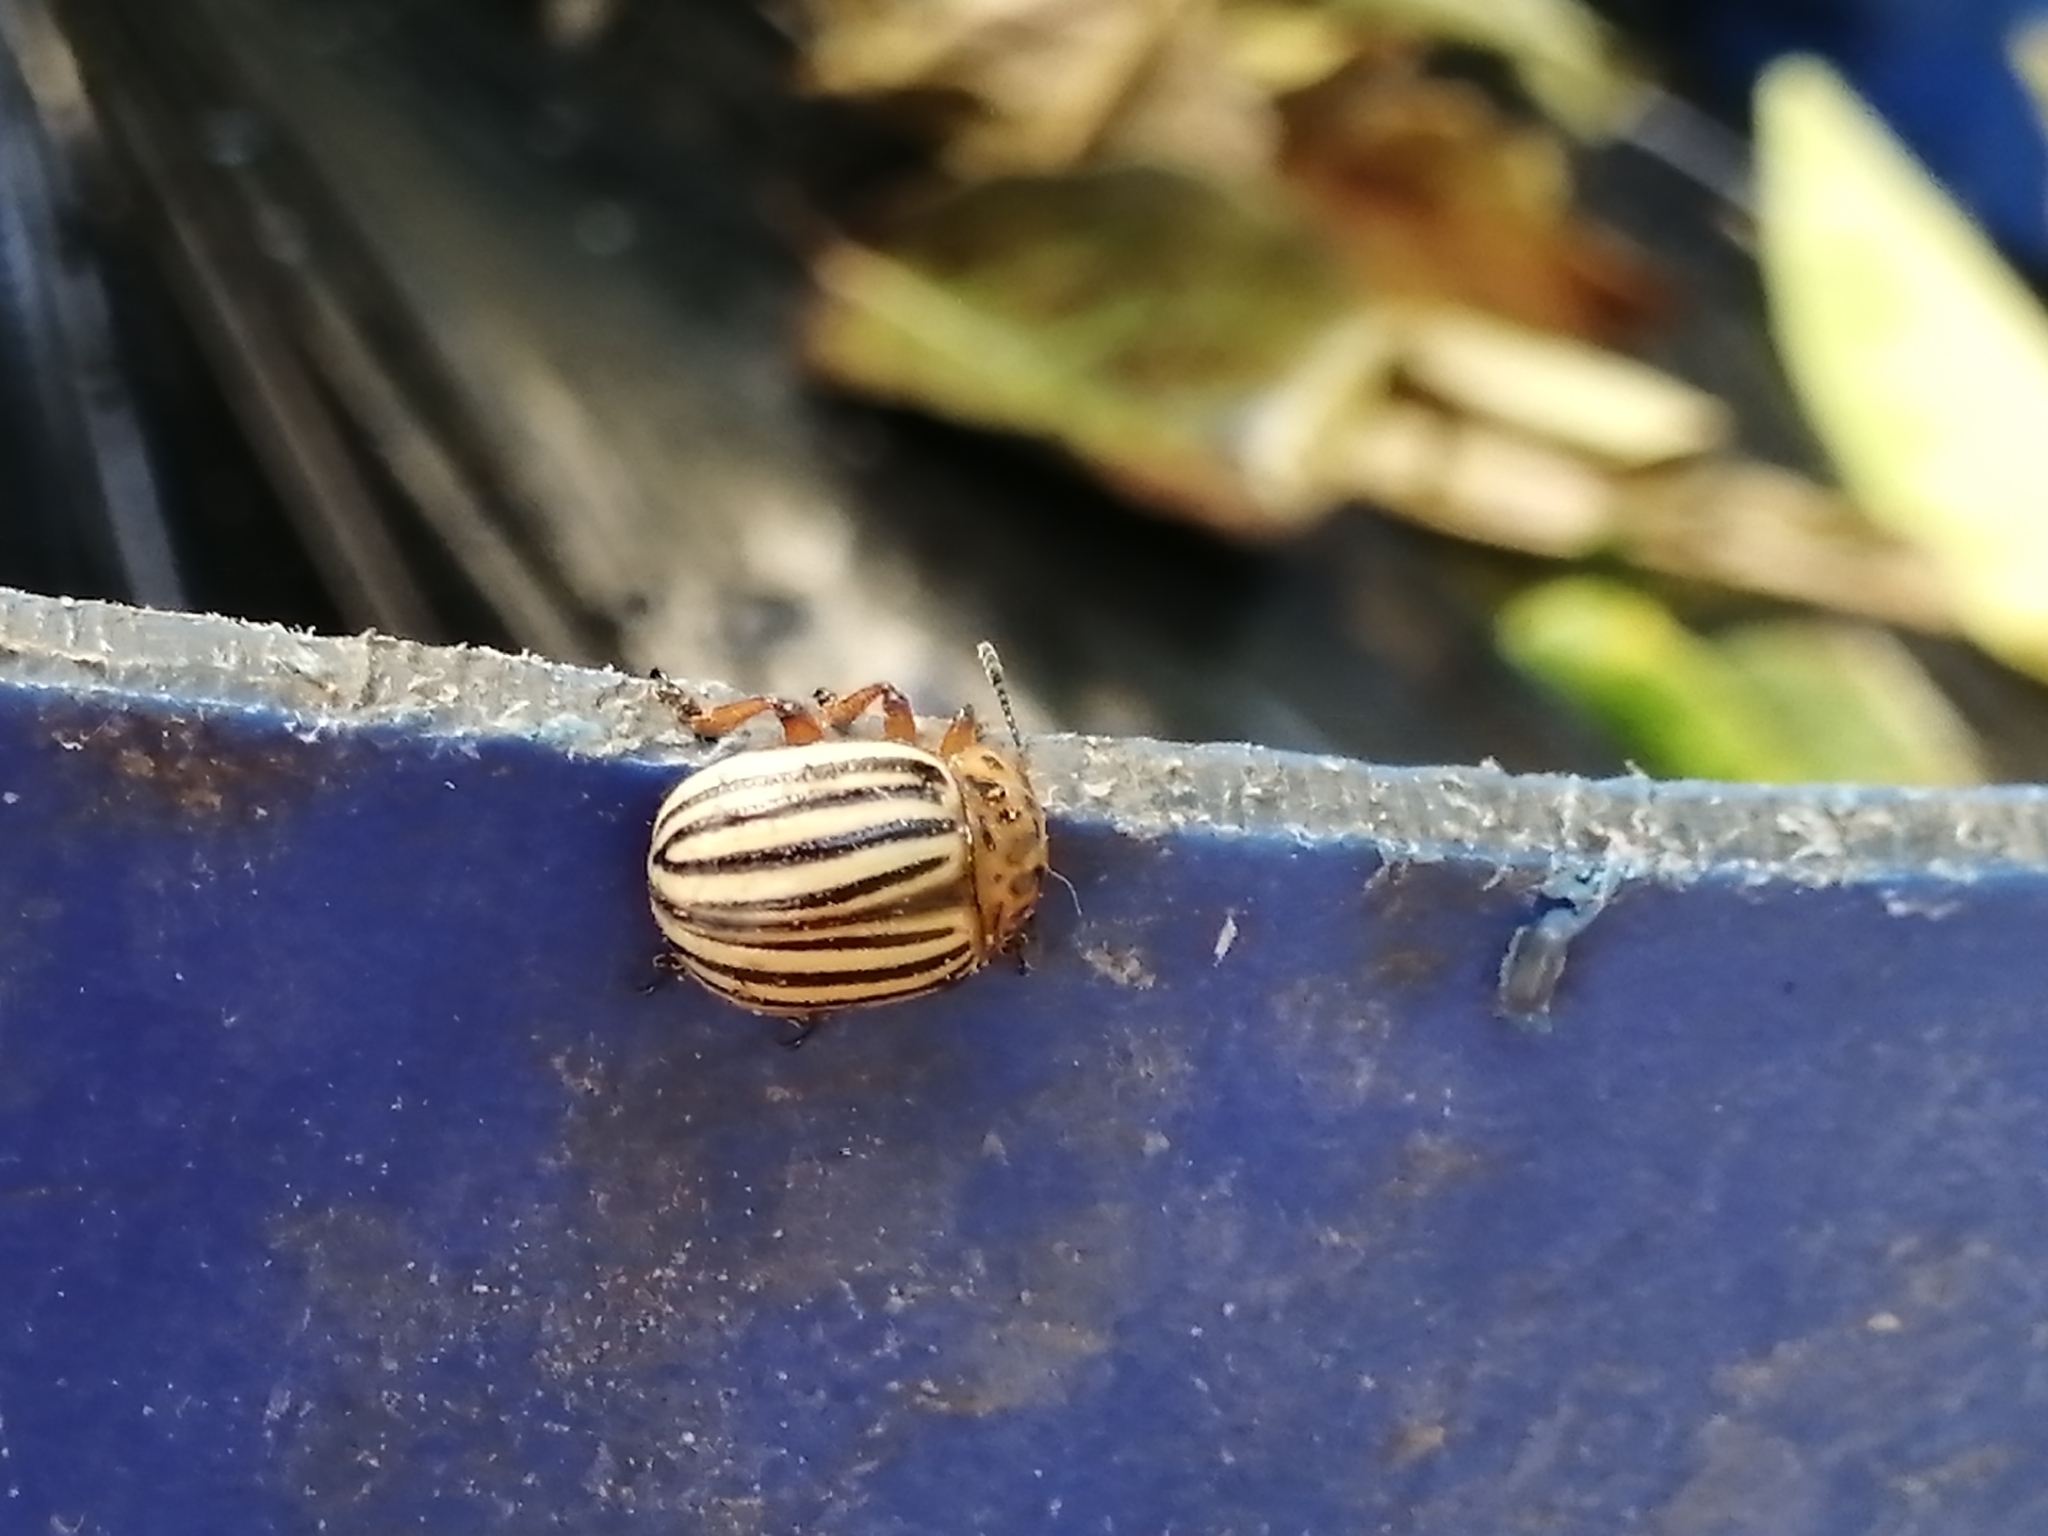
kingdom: Animalia
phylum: Arthropoda
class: Insecta
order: Coleoptera
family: Chrysomelidae
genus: Leptinotarsa
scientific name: Leptinotarsa decemlineata
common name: Colorado potato beetle
